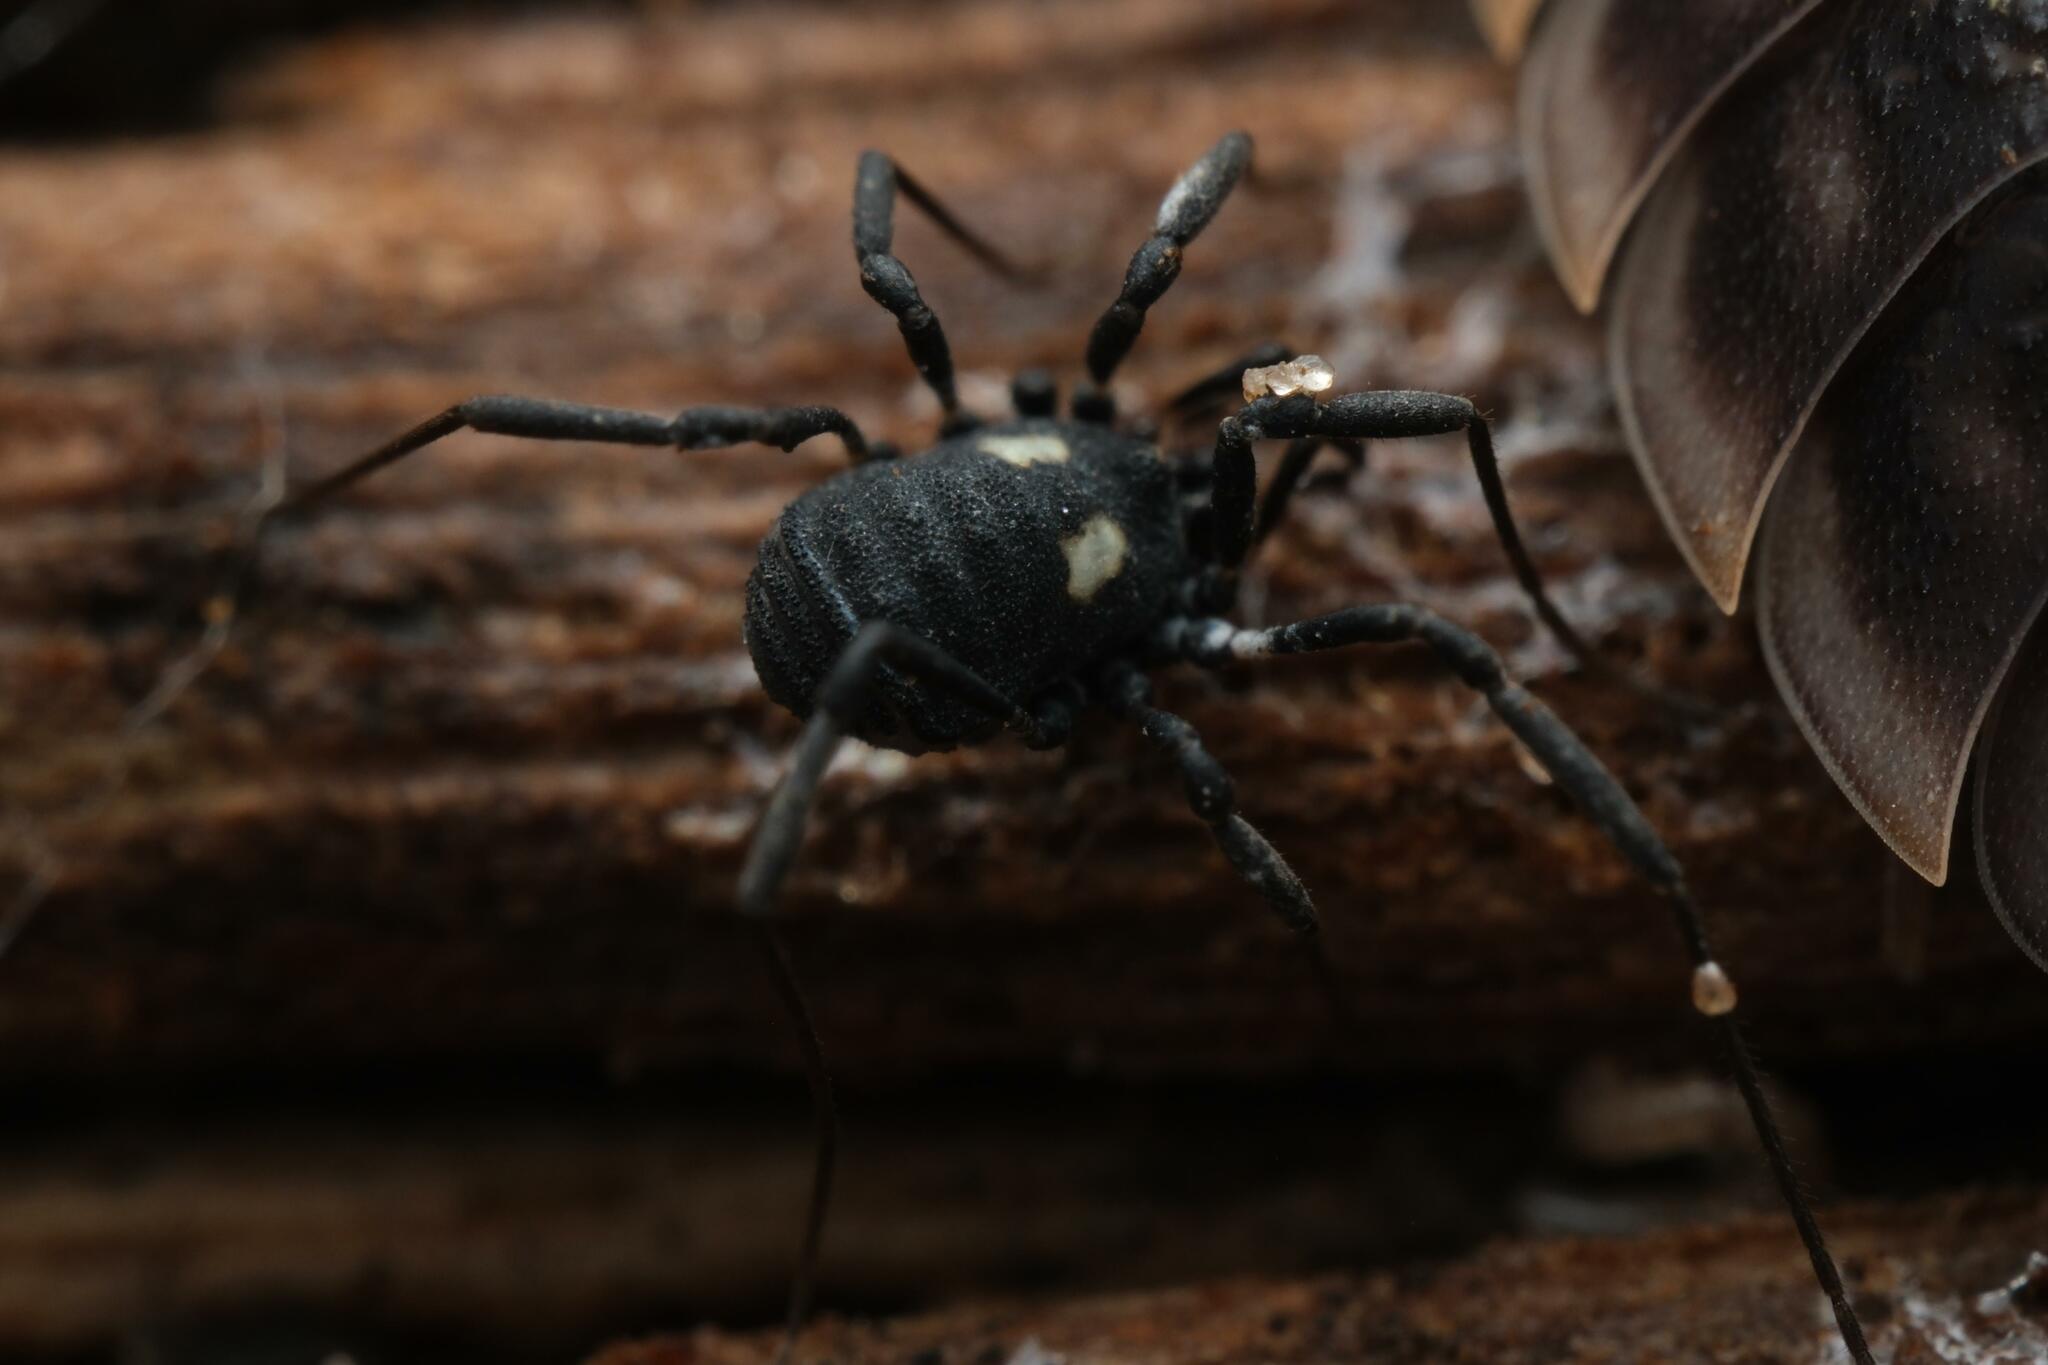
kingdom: Animalia
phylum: Arthropoda
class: Arachnida
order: Opiliones
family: Nemastomatidae
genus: Nemastoma
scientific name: Nemastoma lugubre
